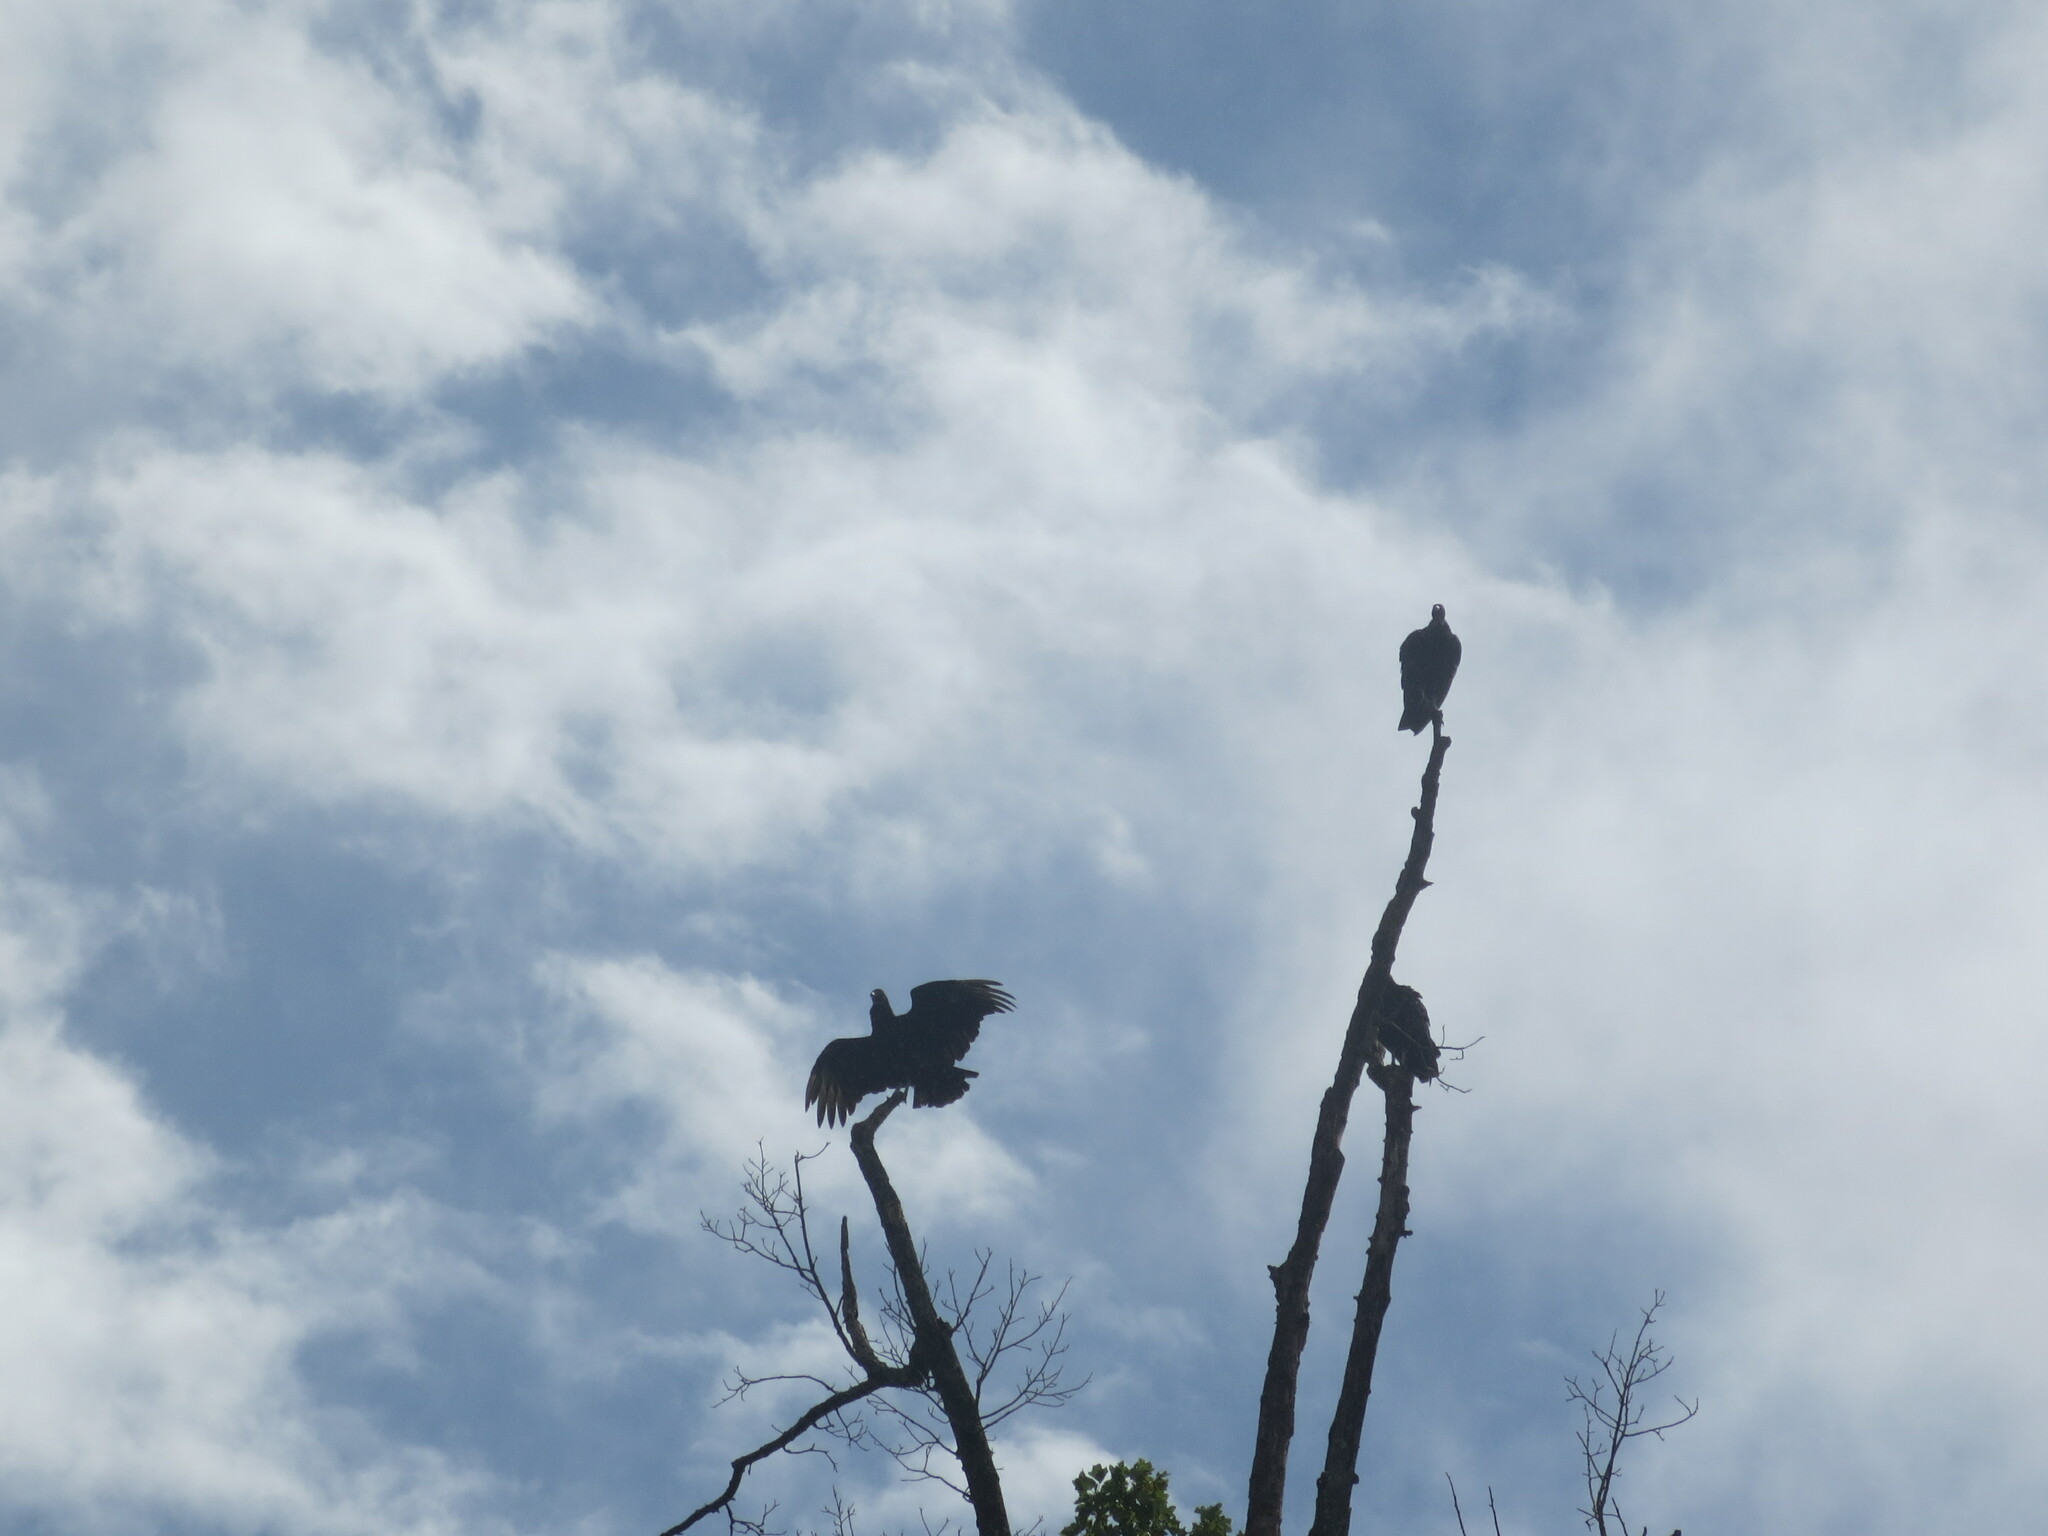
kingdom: Animalia
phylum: Chordata
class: Aves
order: Accipitriformes
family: Cathartidae
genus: Coragyps
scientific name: Coragyps atratus
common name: Black vulture
